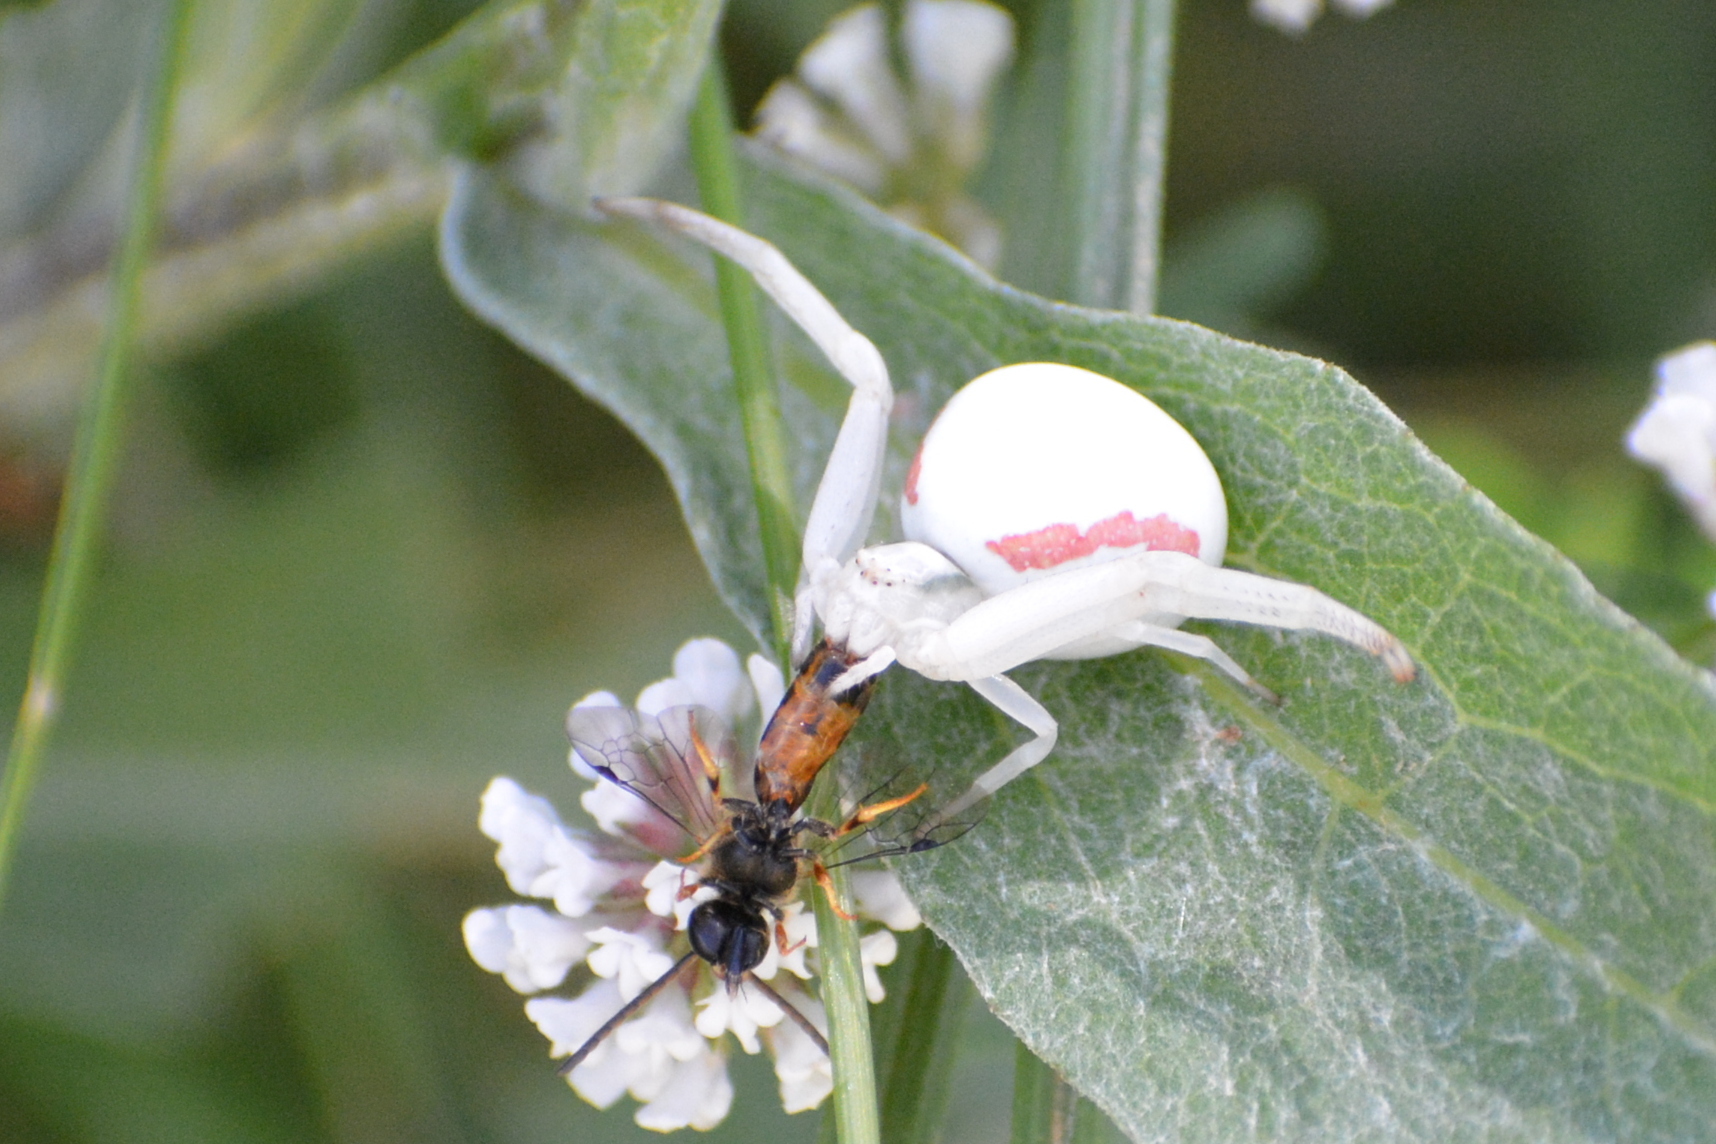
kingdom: Animalia
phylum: Arthropoda
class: Arachnida
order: Araneae
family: Thomisidae
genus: Misumena
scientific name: Misumena vatia
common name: Goldenrod crab spider
